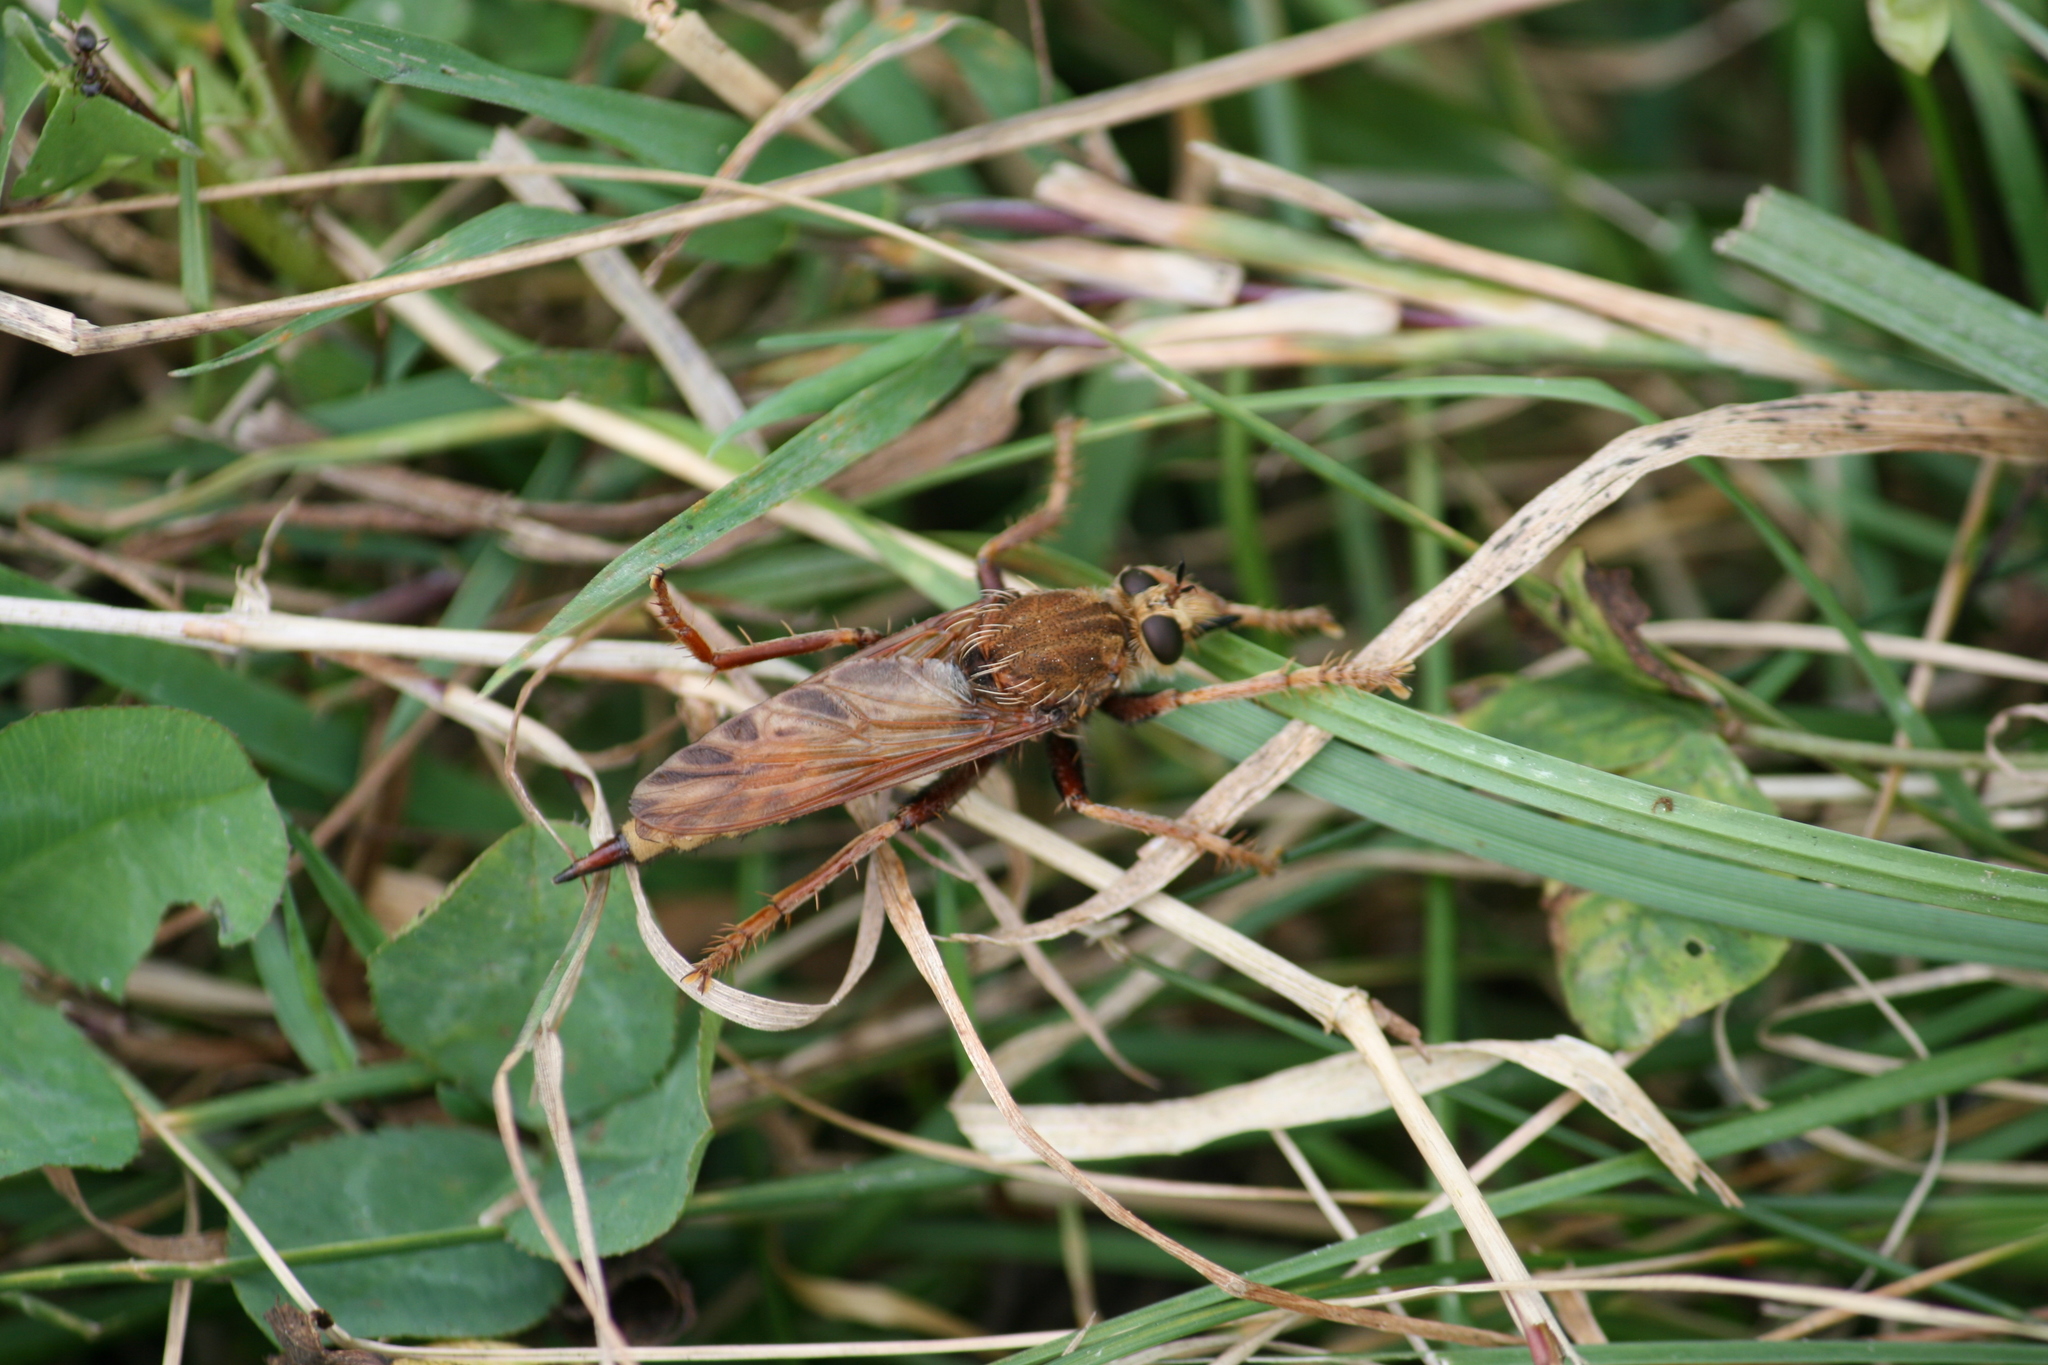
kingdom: Animalia
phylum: Arthropoda
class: Insecta
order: Diptera
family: Asilidae
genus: Asilus
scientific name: Asilus crabroniformis
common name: Hornet robberfly
